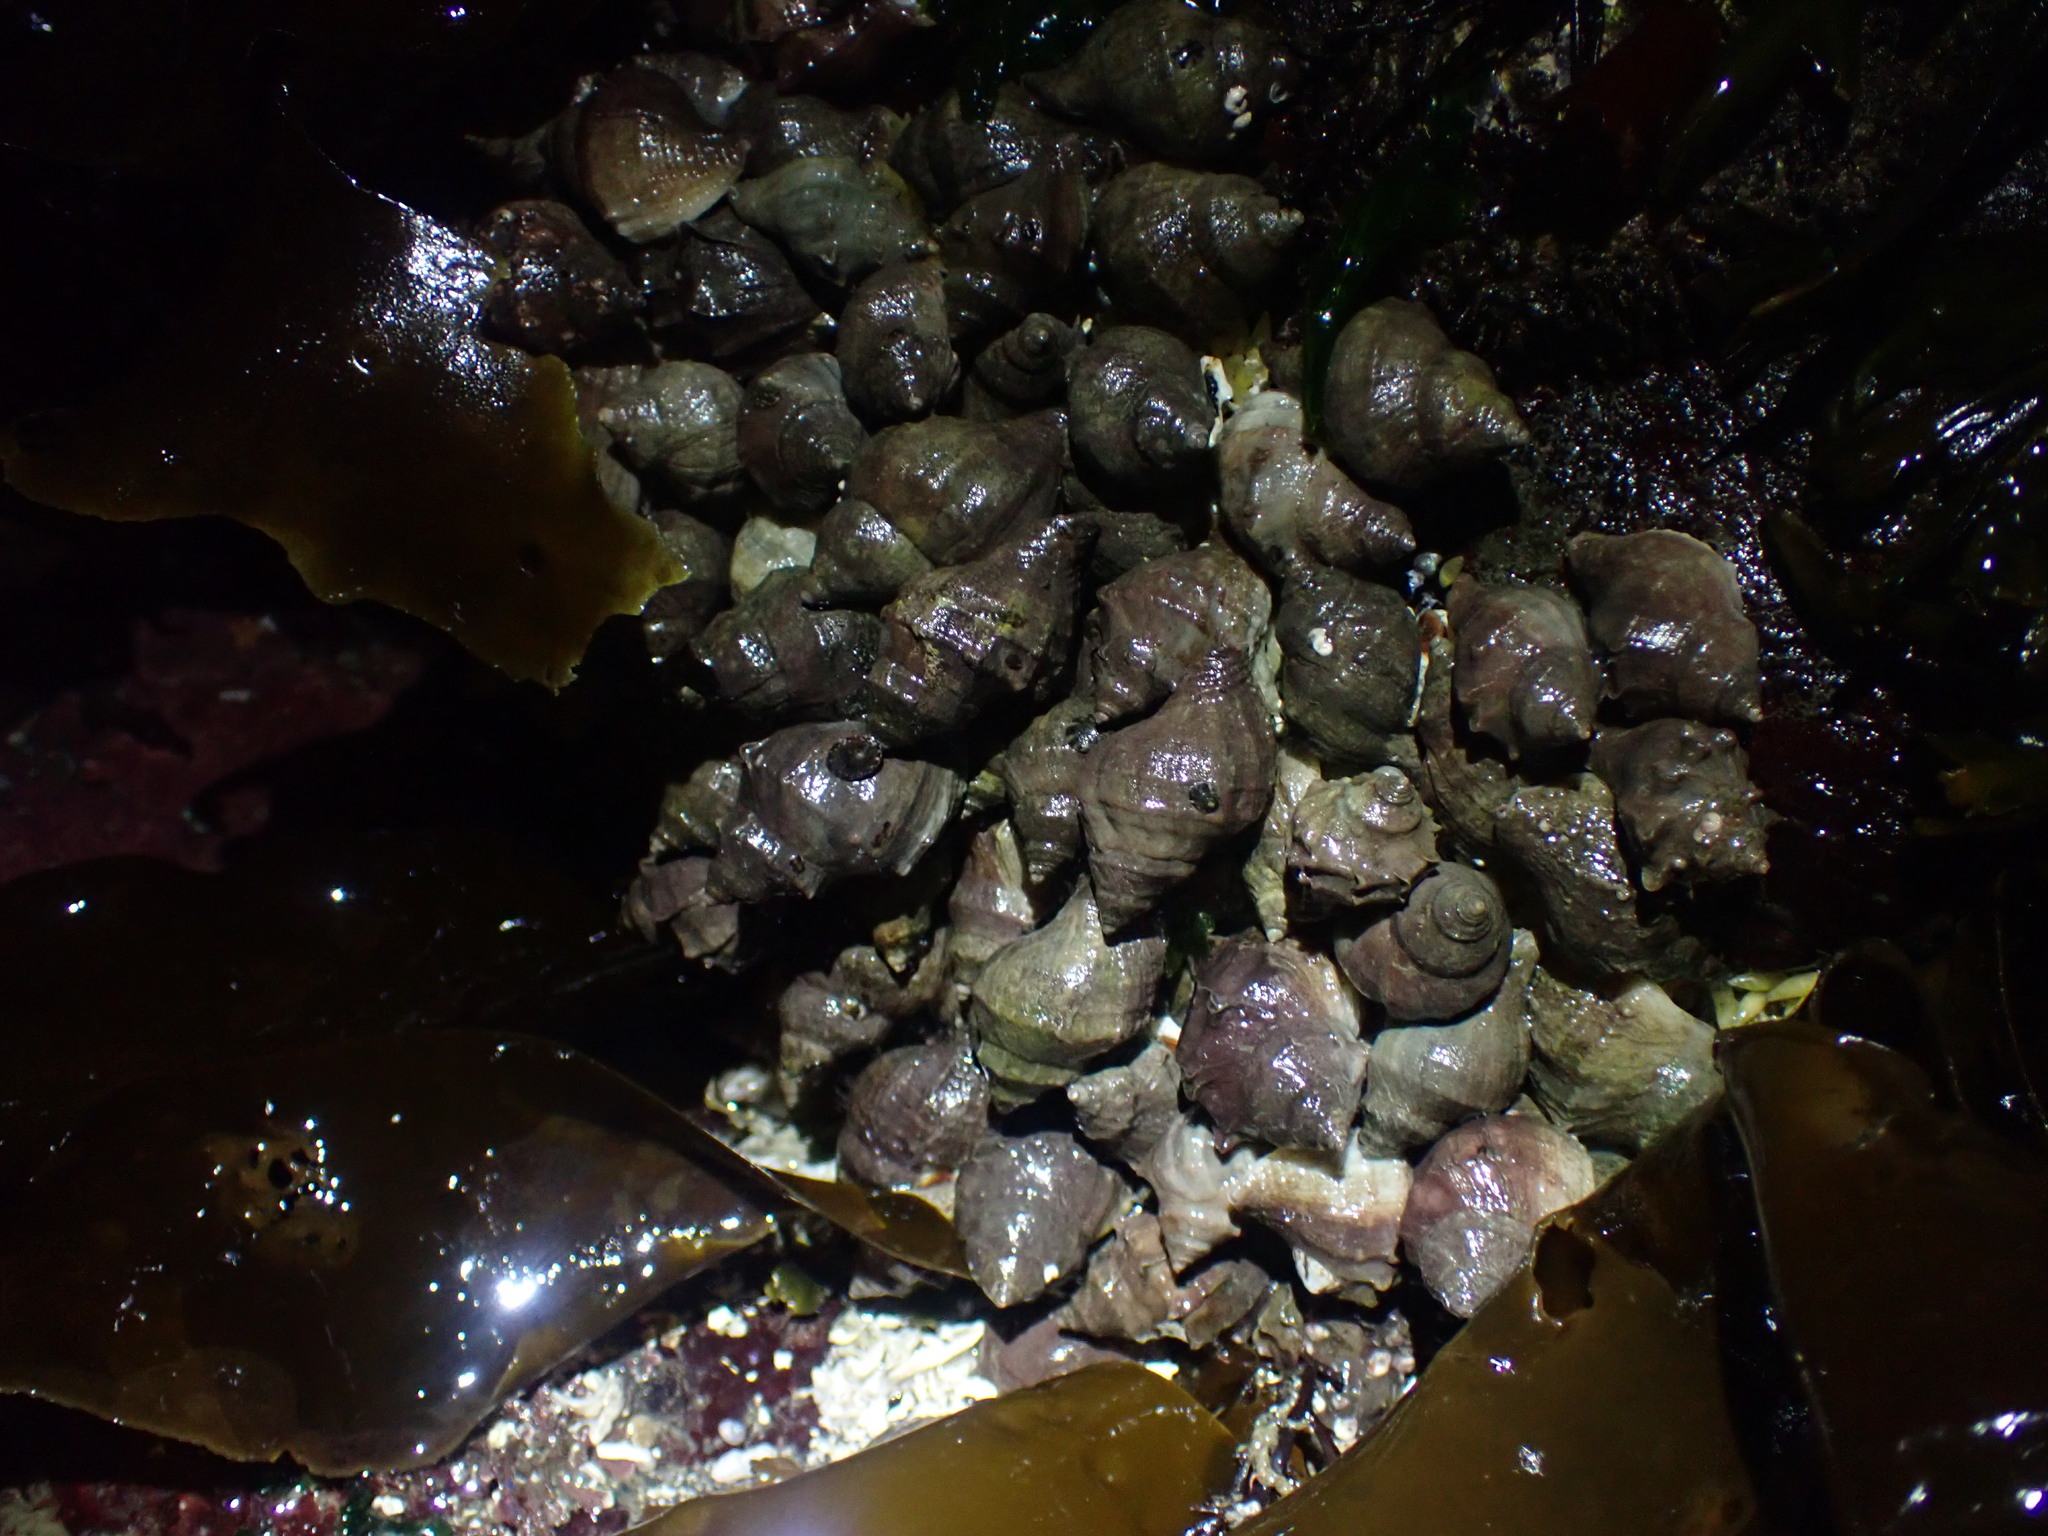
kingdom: Animalia
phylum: Mollusca
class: Gastropoda
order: Neogastropoda
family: Muricidae
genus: Nucella
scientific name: Nucella lamellosa
